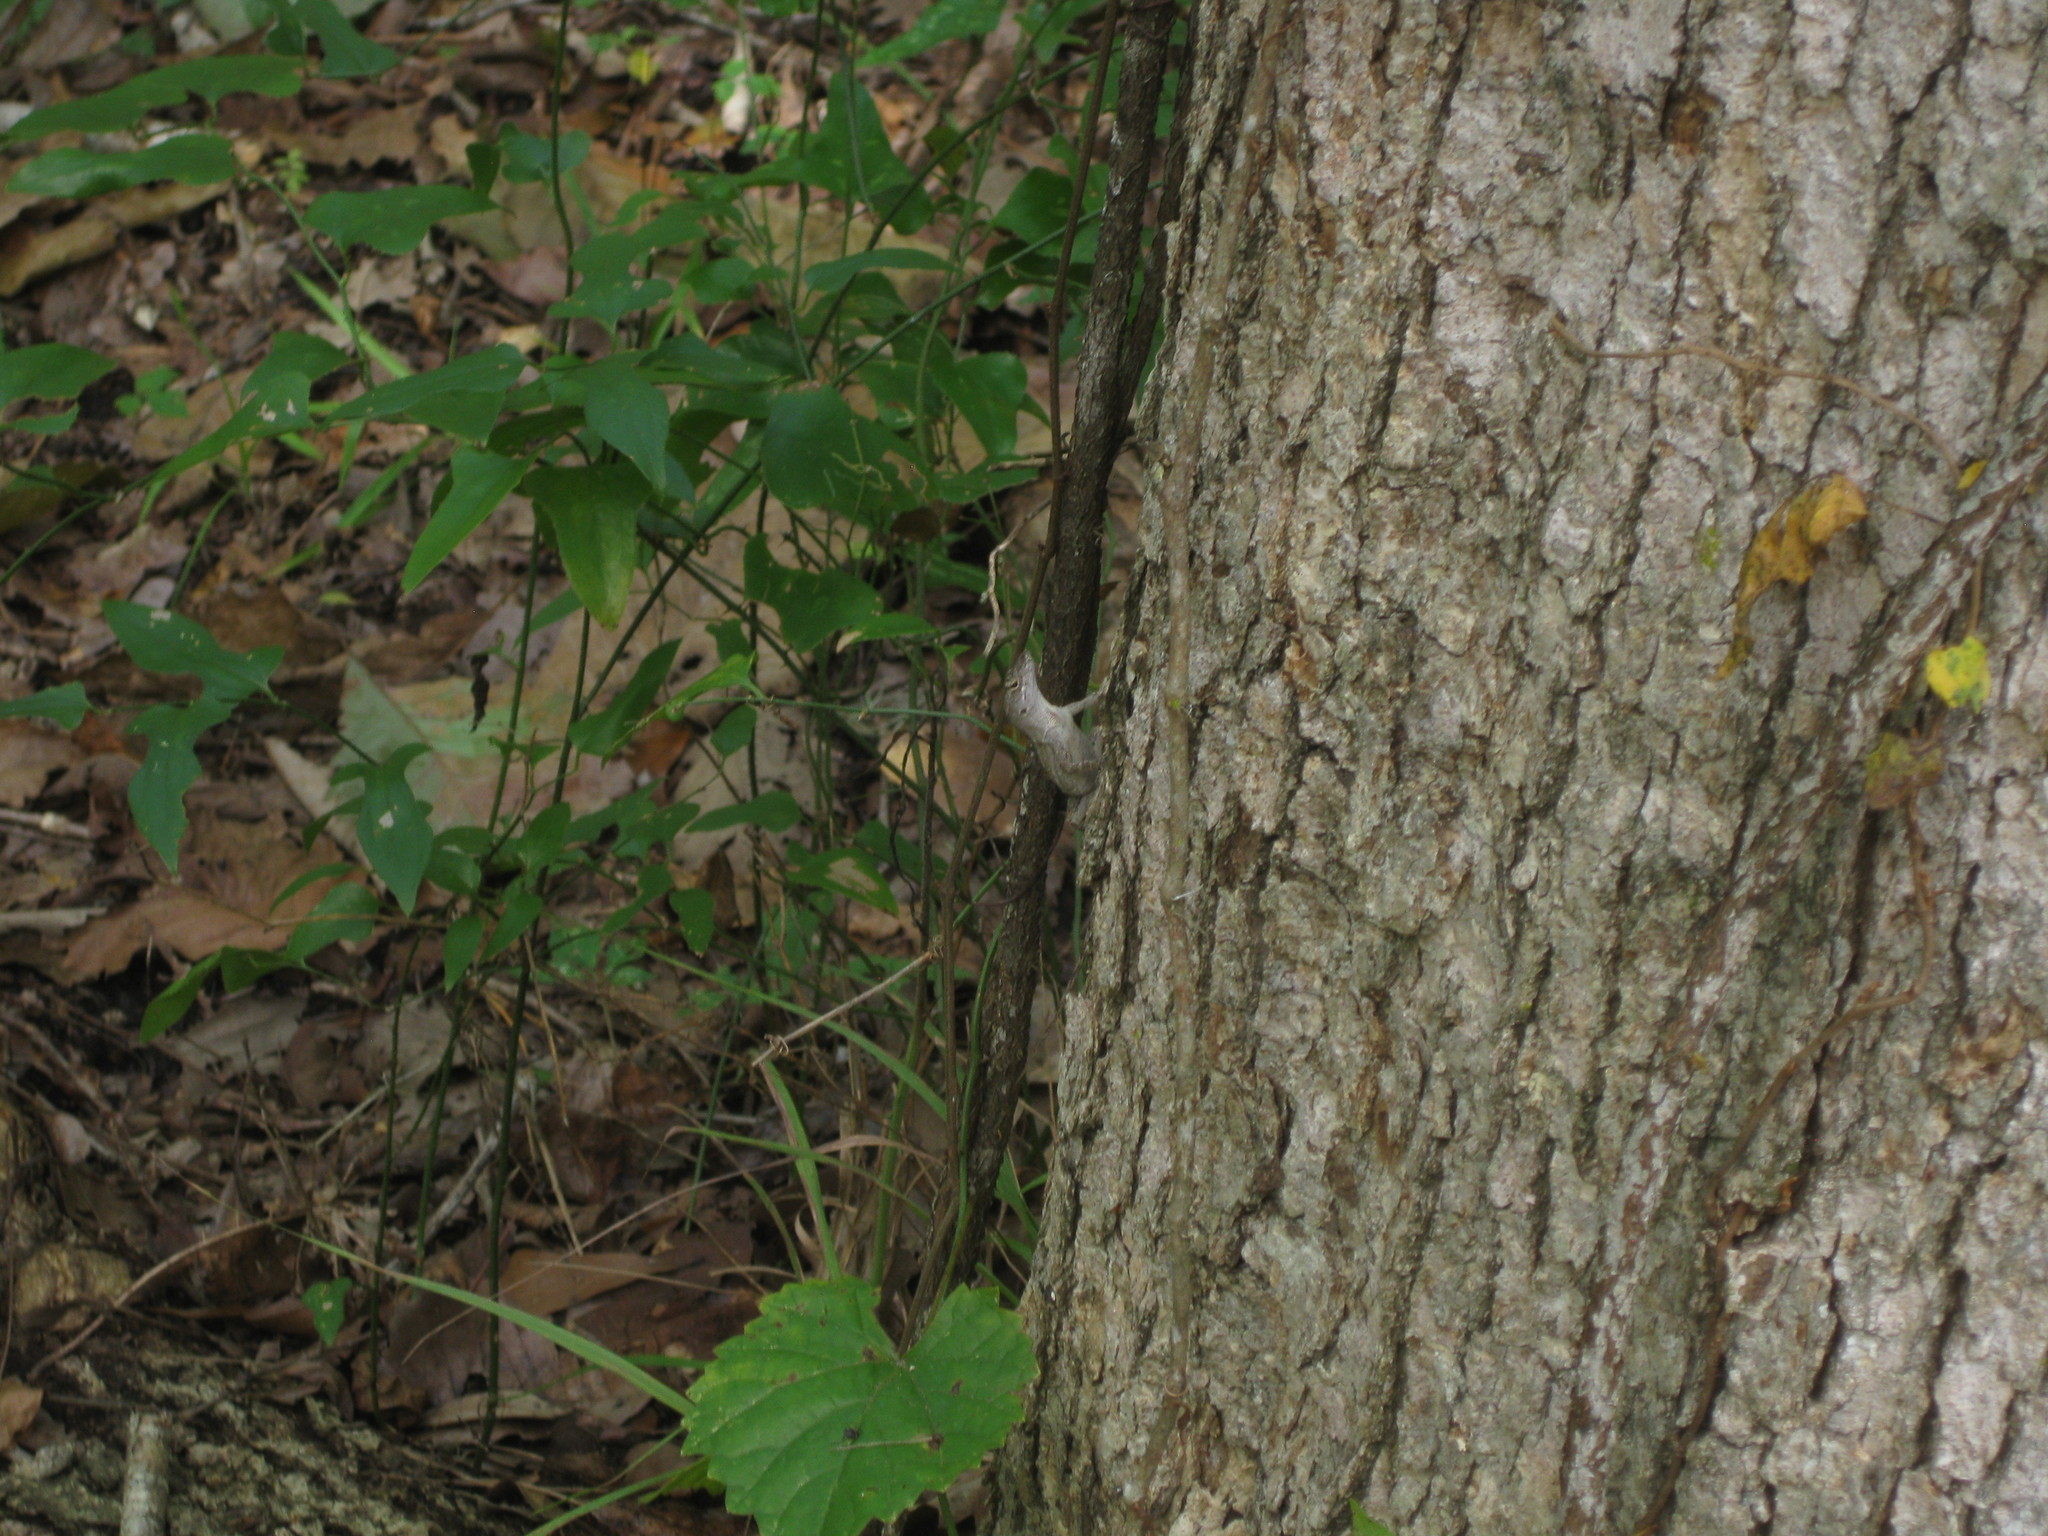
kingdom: Animalia
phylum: Chordata
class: Squamata
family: Dactyloidae
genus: Anolis
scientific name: Anolis sagrei
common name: Brown anole
